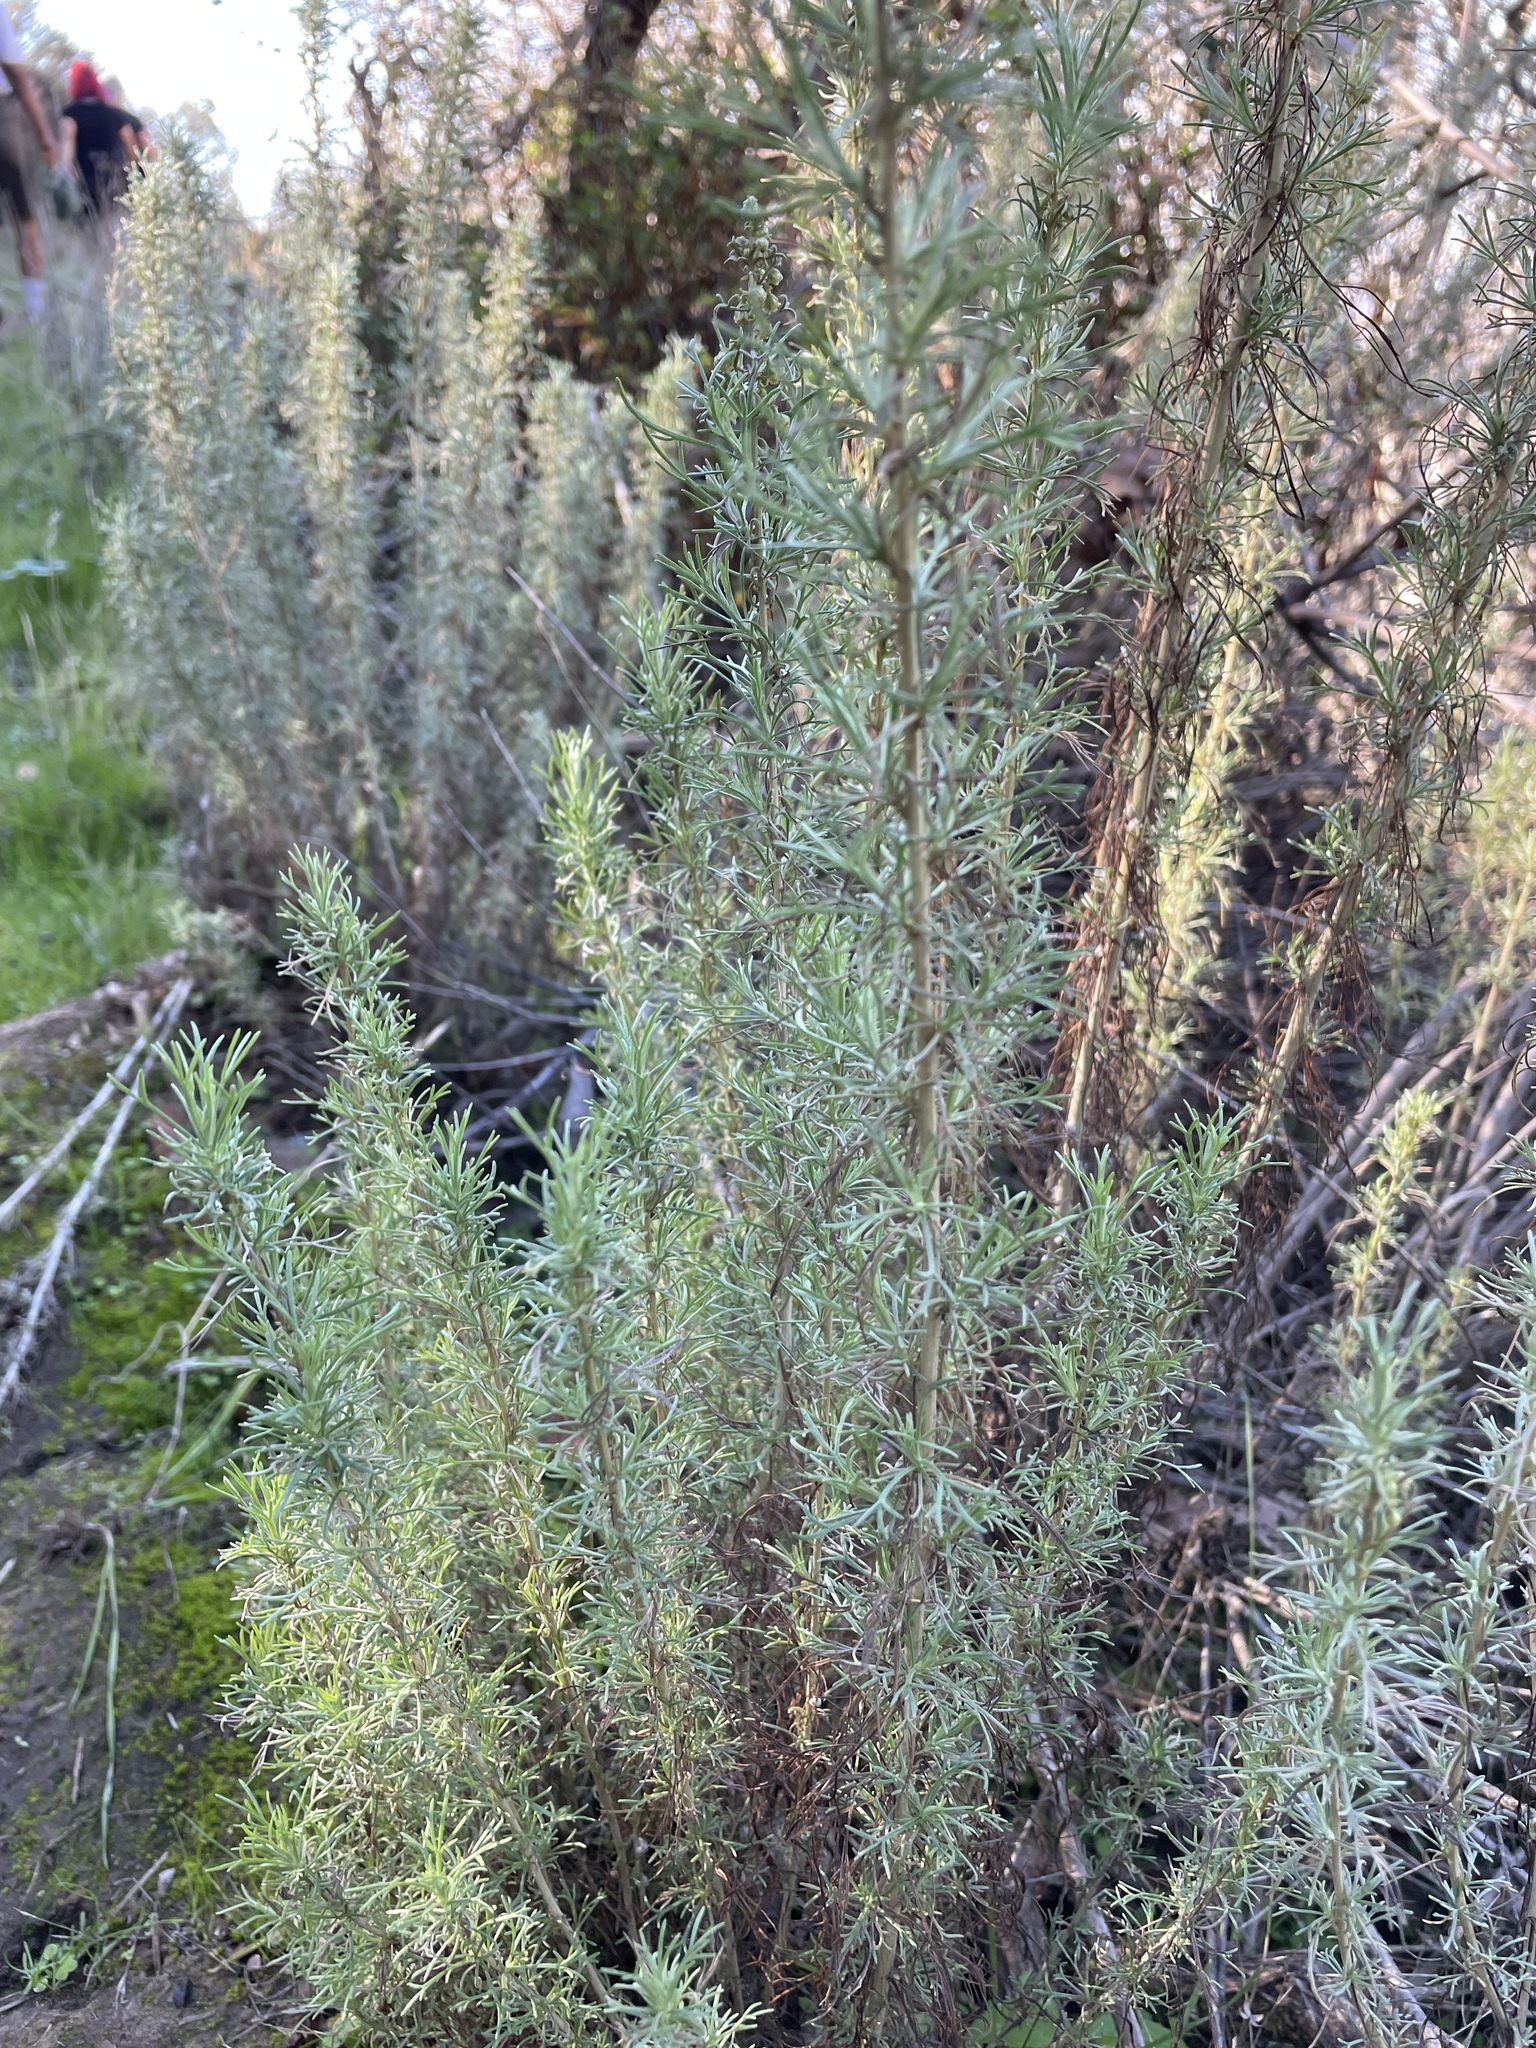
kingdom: Plantae
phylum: Tracheophyta
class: Magnoliopsida
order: Asterales
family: Asteraceae
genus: Artemisia
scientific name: Artemisia californica
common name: California sagebrush
